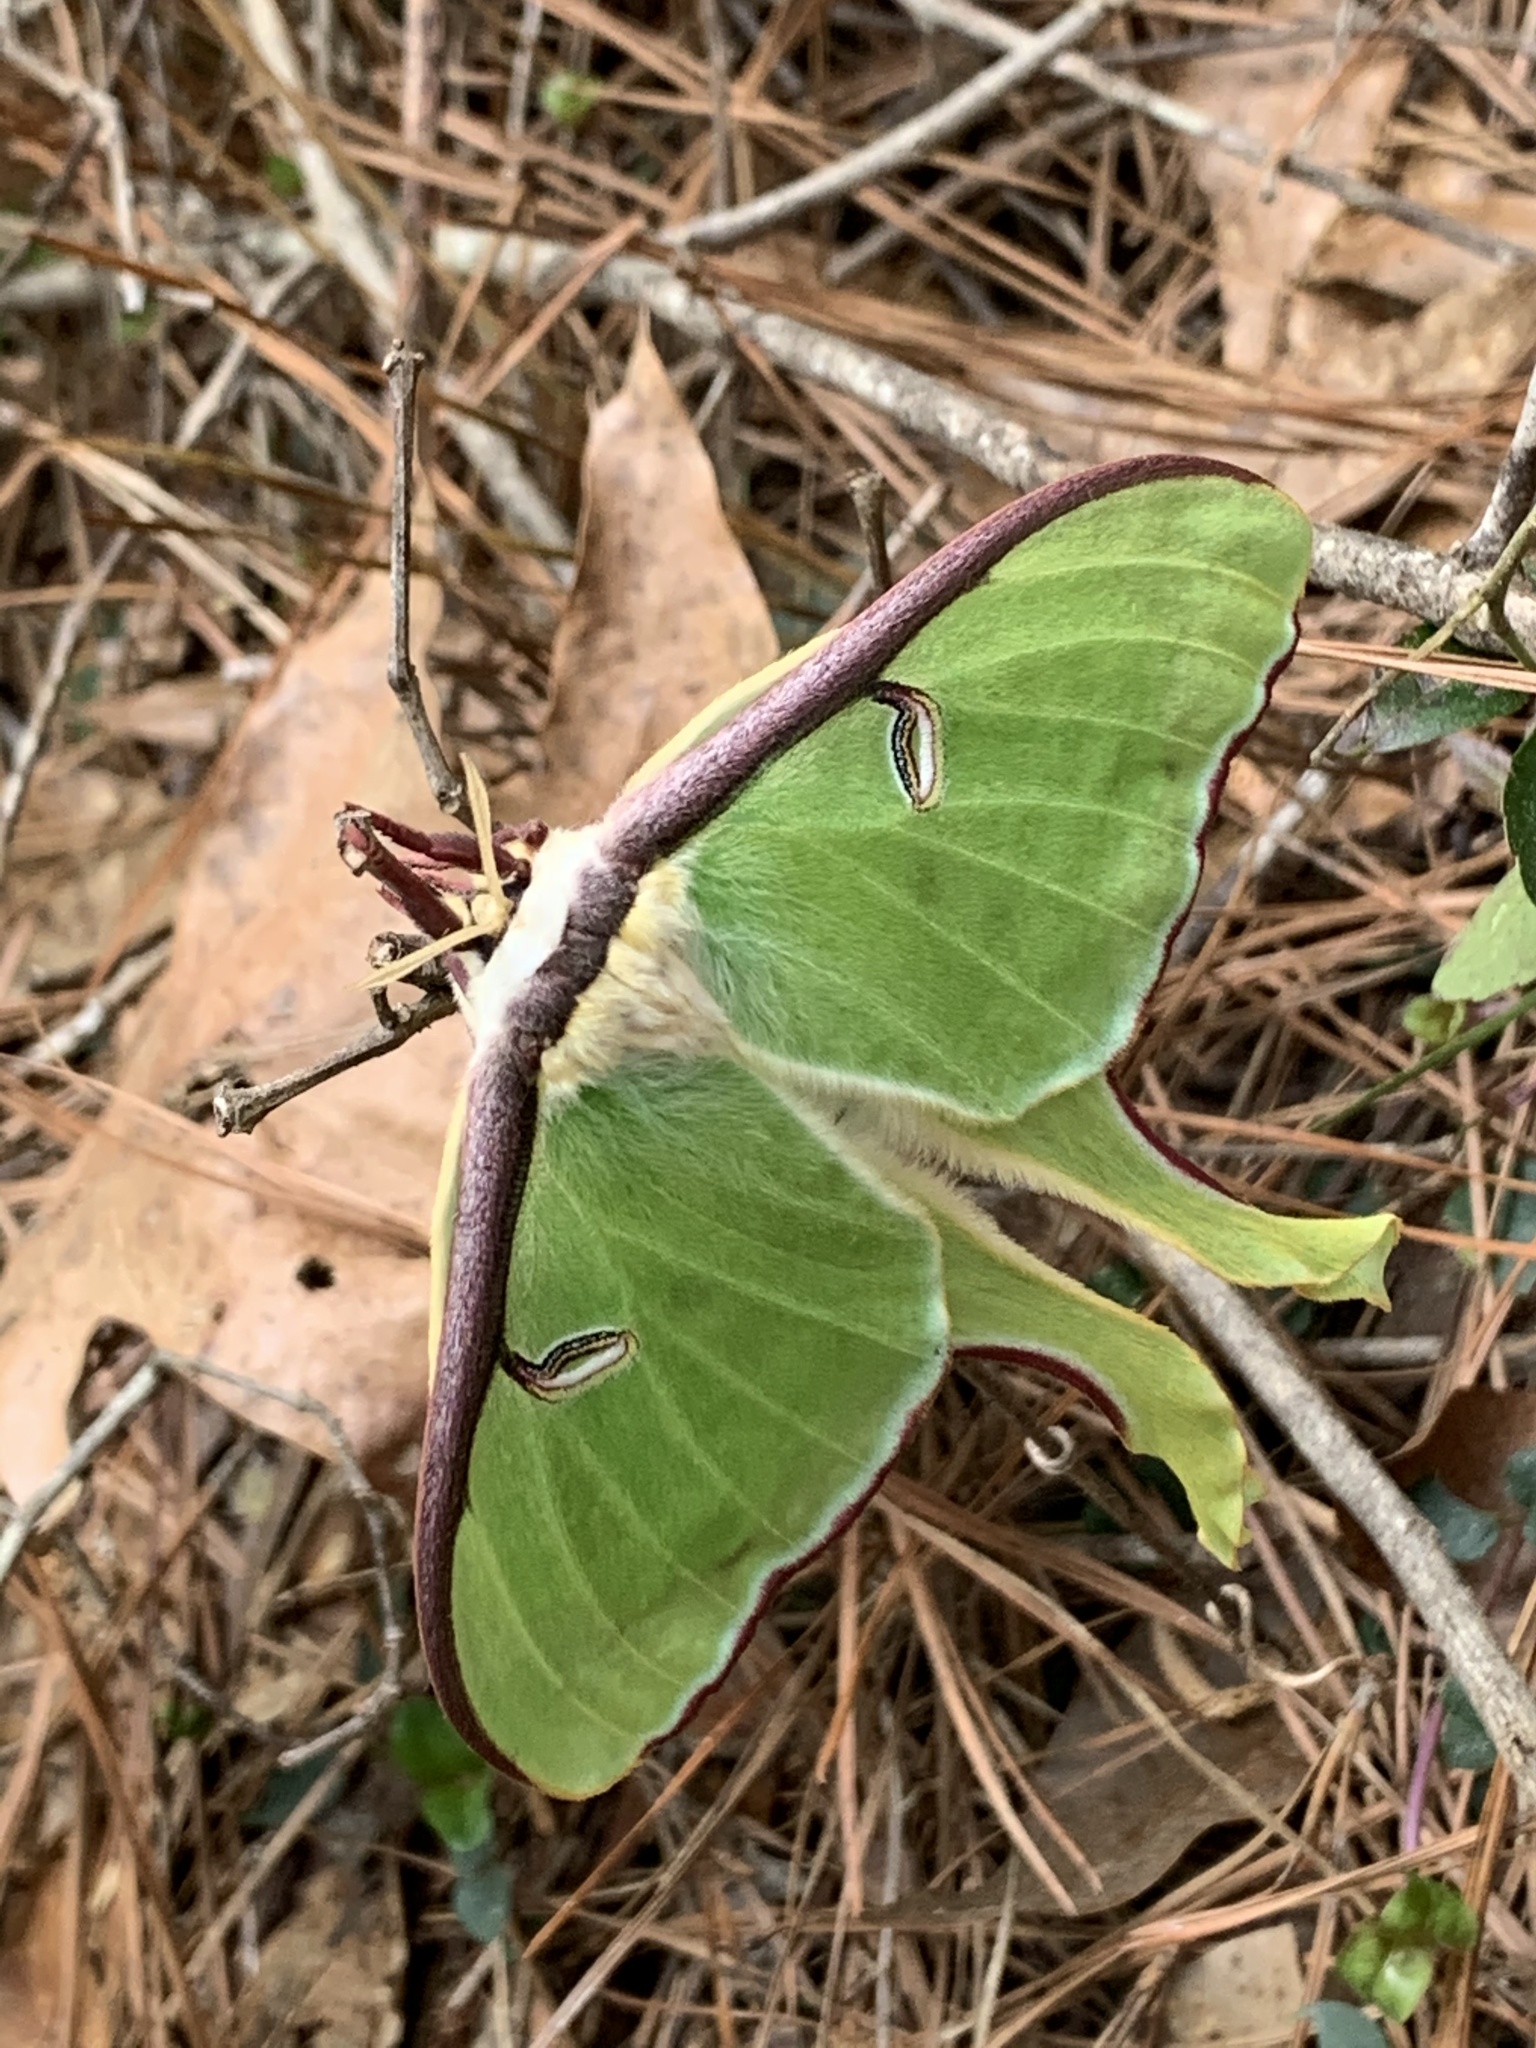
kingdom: Animalia
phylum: Arthropoda
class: Insecta
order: Lepidoptera
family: Saturniidae
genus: Actias
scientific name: Actias luna
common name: Luna moth
